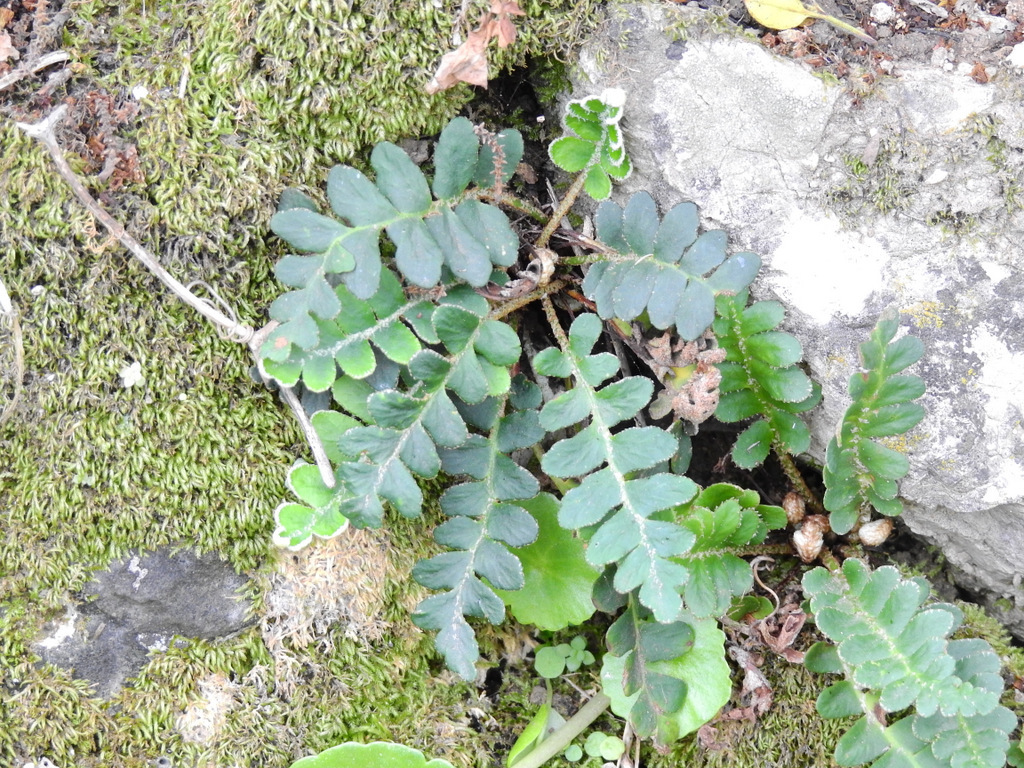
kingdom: Plantae
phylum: Tracheophyta
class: Polypodiopsida
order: Polypodiales
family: Aspleniaceae
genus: Asplenium
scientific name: Asplenium ceterach
